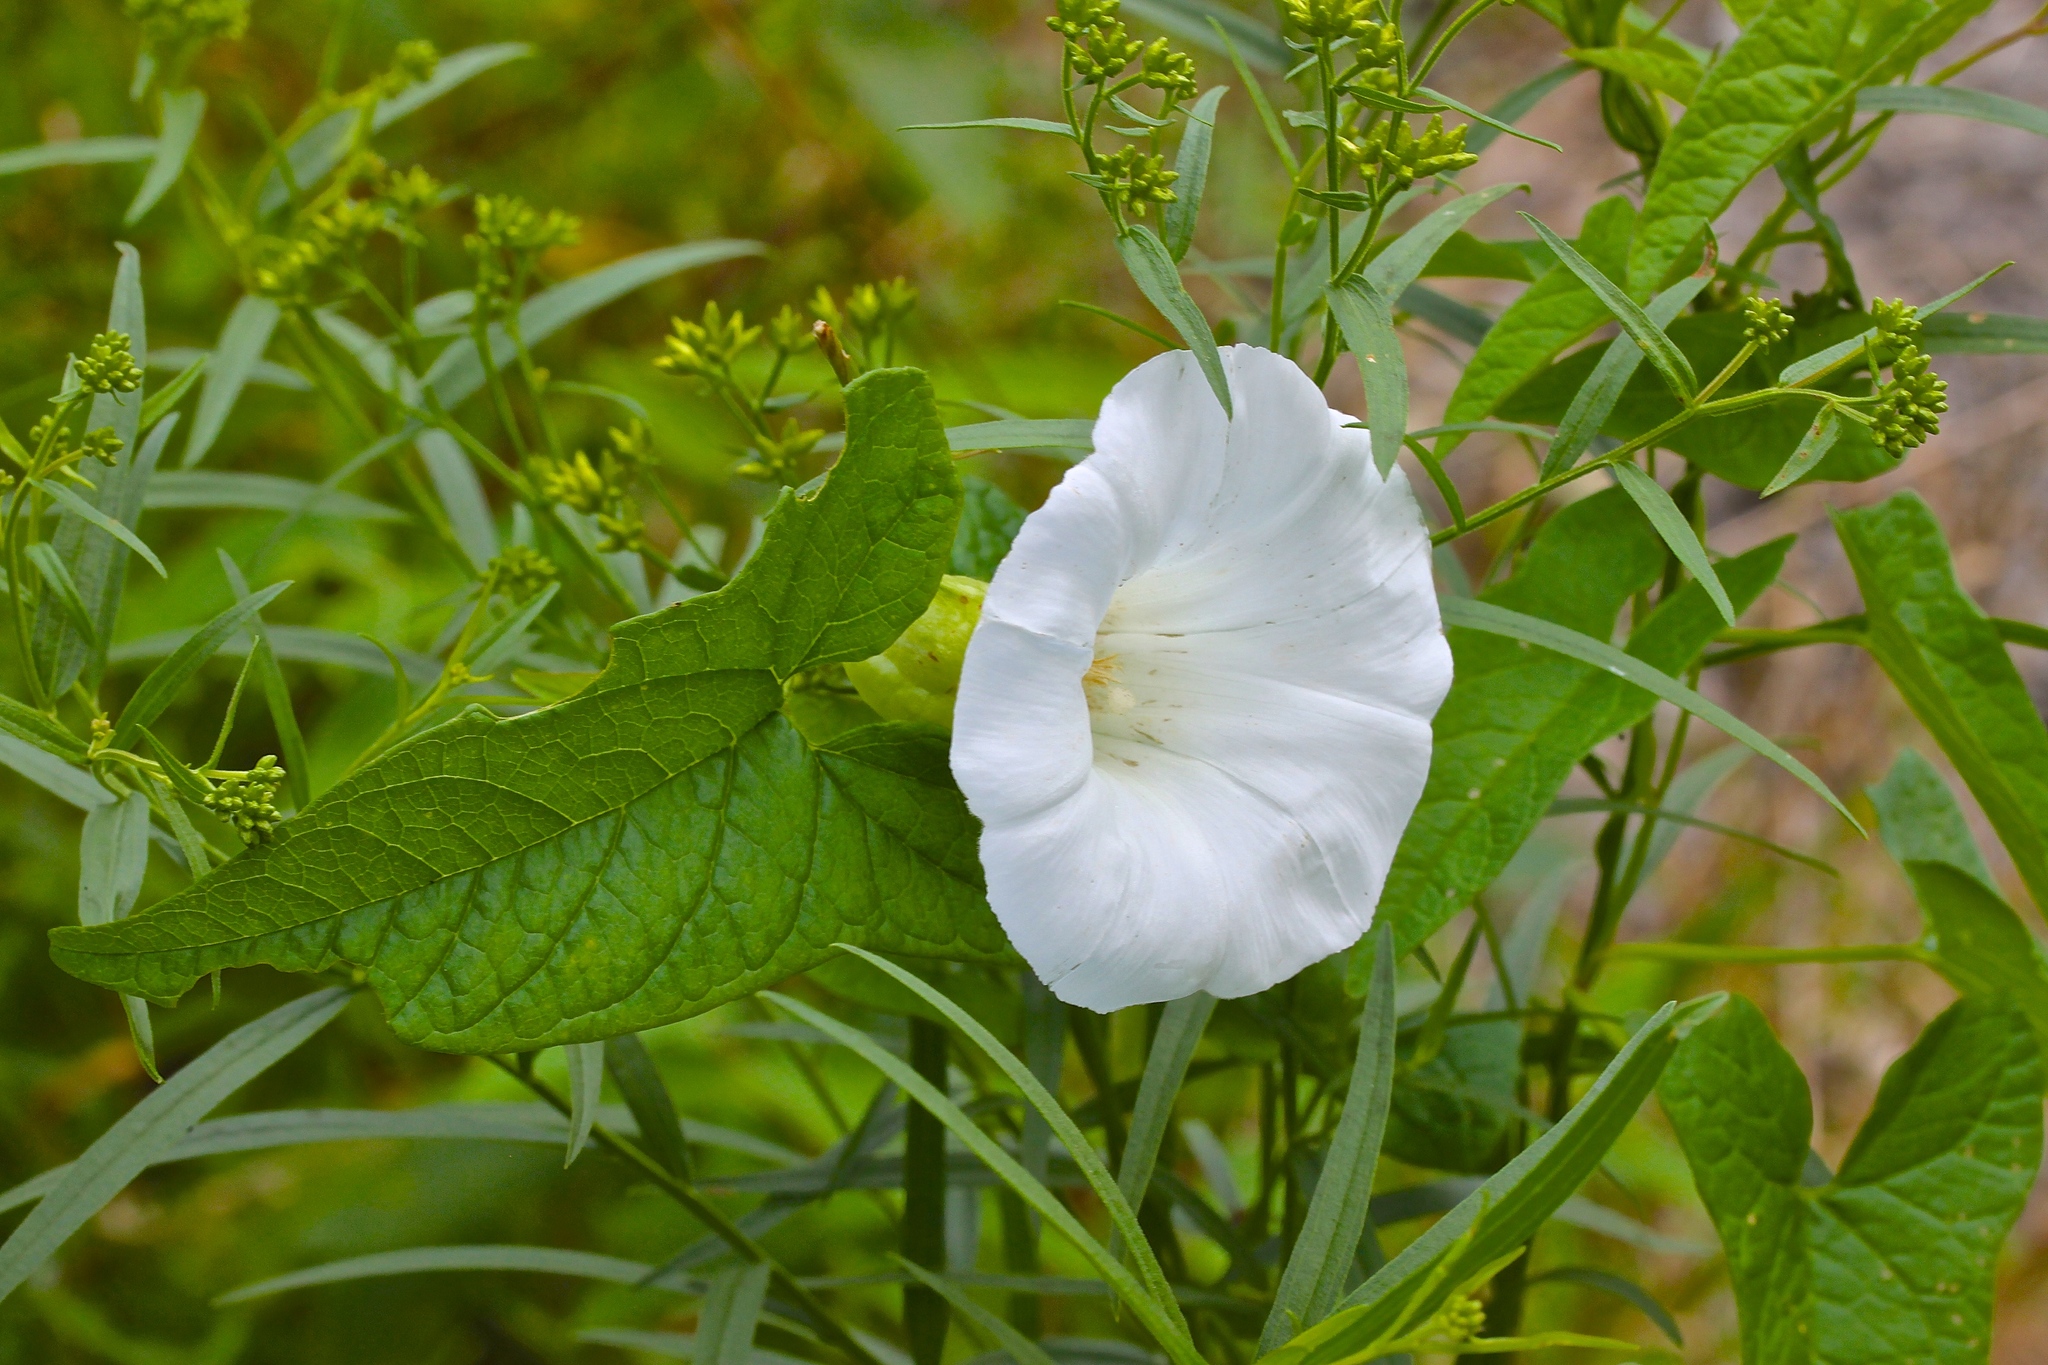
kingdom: Plantae
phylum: Tracheophyta
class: Magnoliopsida
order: Solanales
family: Convolvulaceae
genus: Calystegia
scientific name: Calystegia sepium
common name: Hedge bindweed
